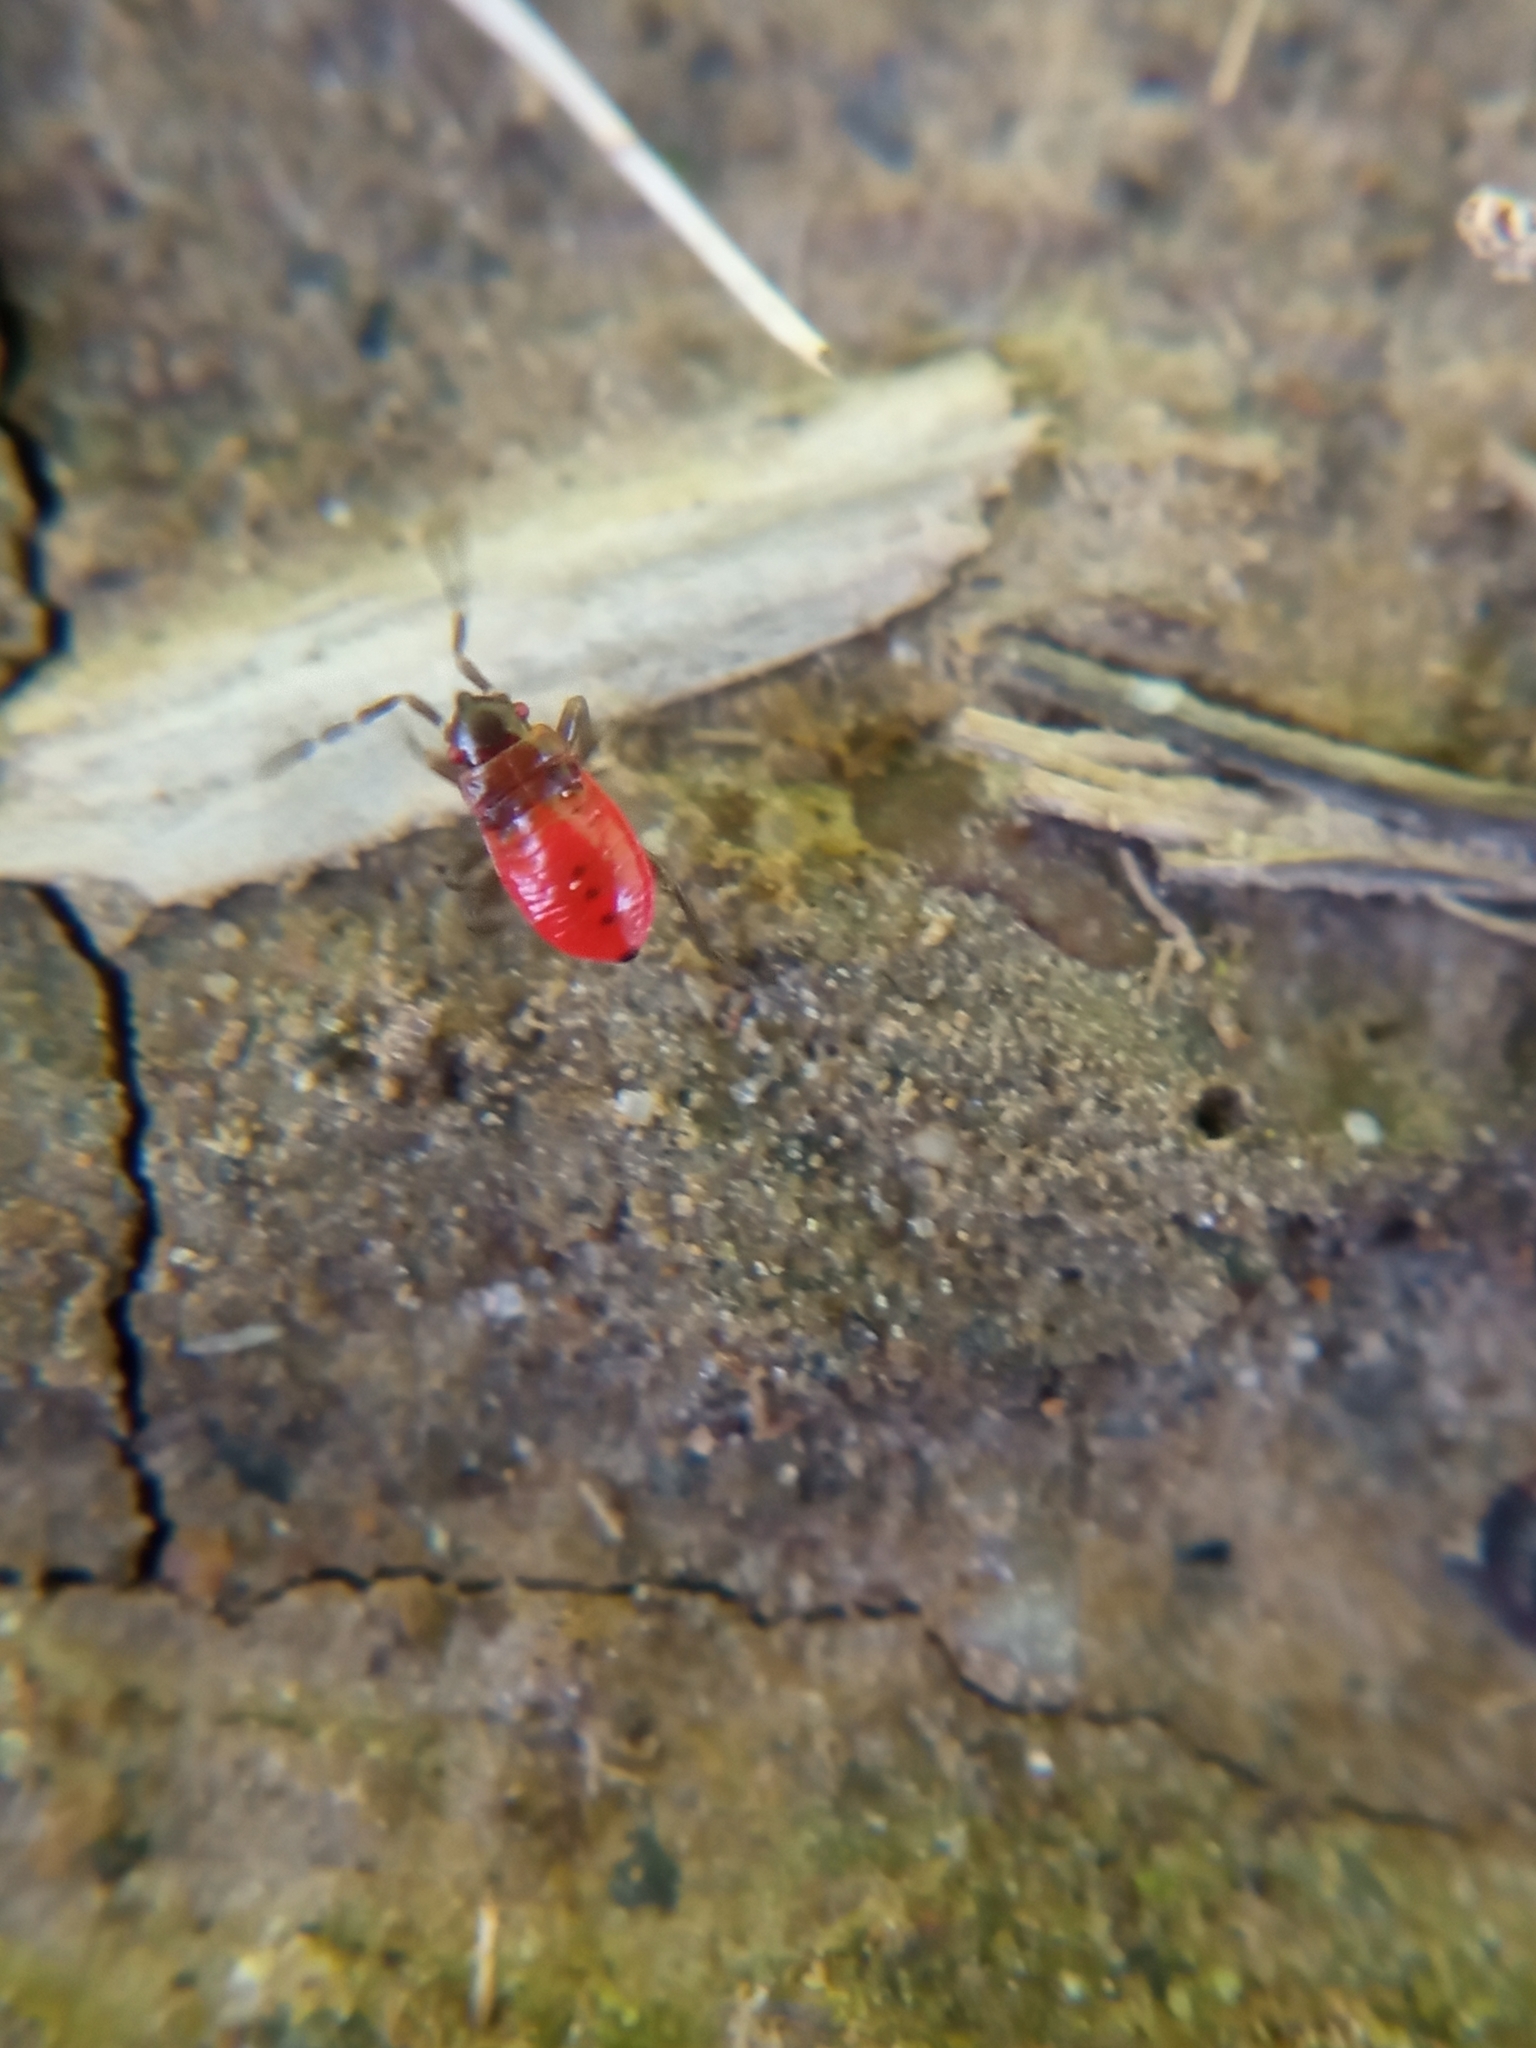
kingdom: Animalia
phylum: Arthropoda
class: Insecta
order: Hemiptera
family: Pyrrhocoridae
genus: Pyrrhocoris
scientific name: Pyrrhocoris apterus
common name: Firebug
